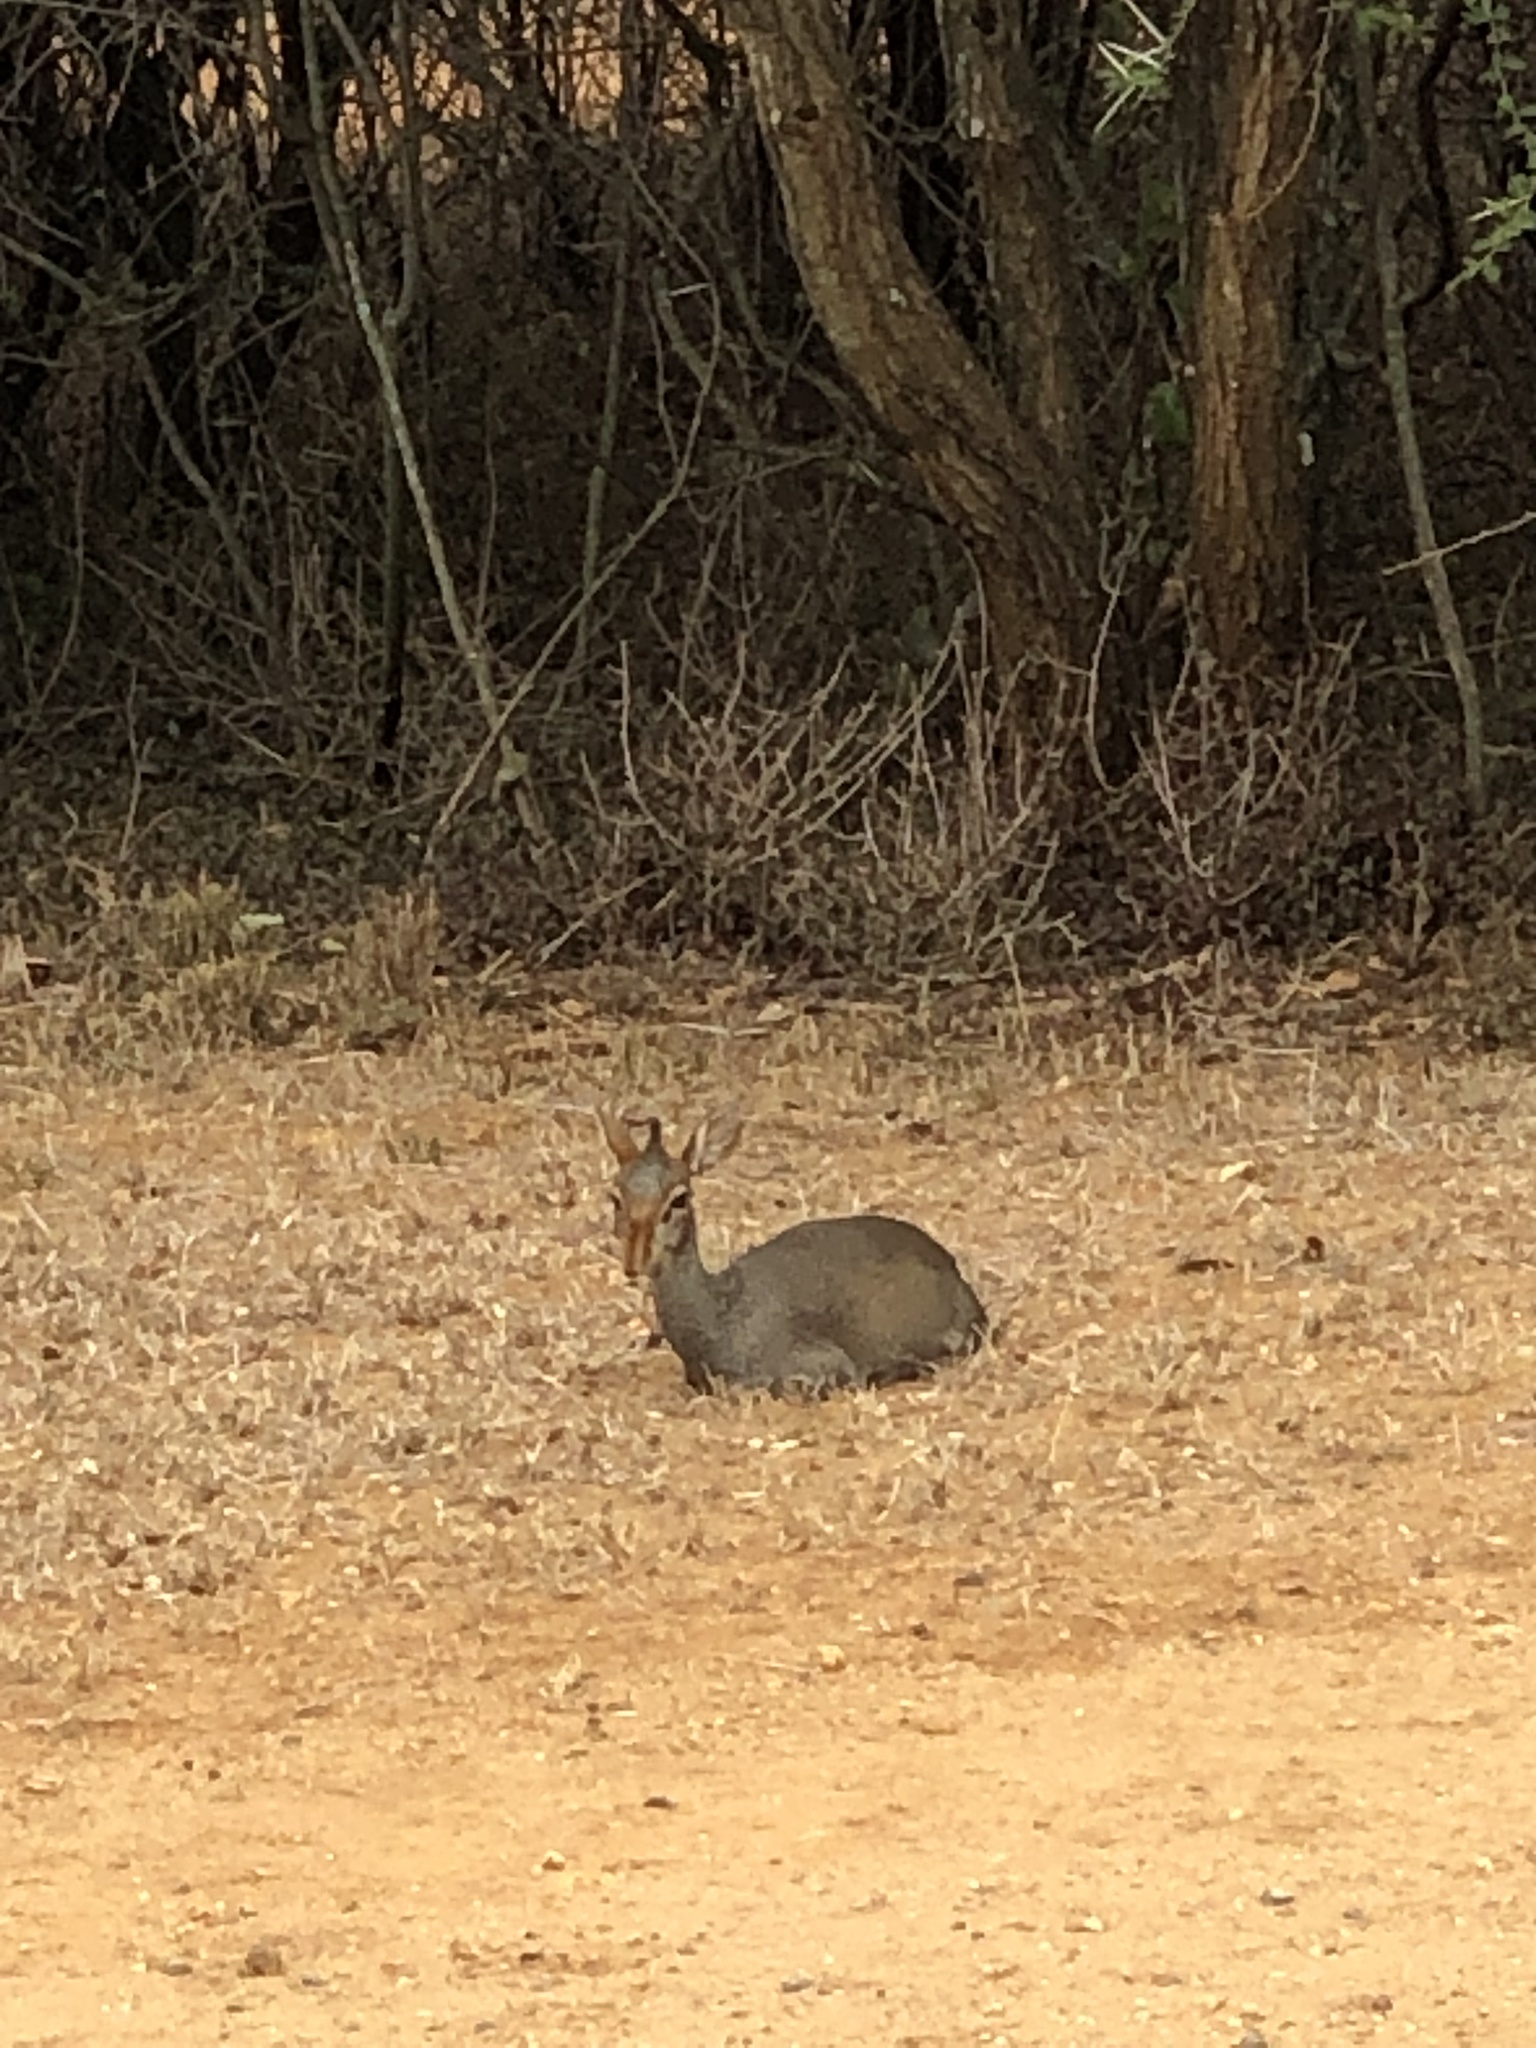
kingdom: Animalia
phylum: Chordata
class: Mammalia
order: Artiodactyla
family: Bovidae
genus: Madoqua
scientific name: Madoqua guentheri
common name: Günther's dikdik
